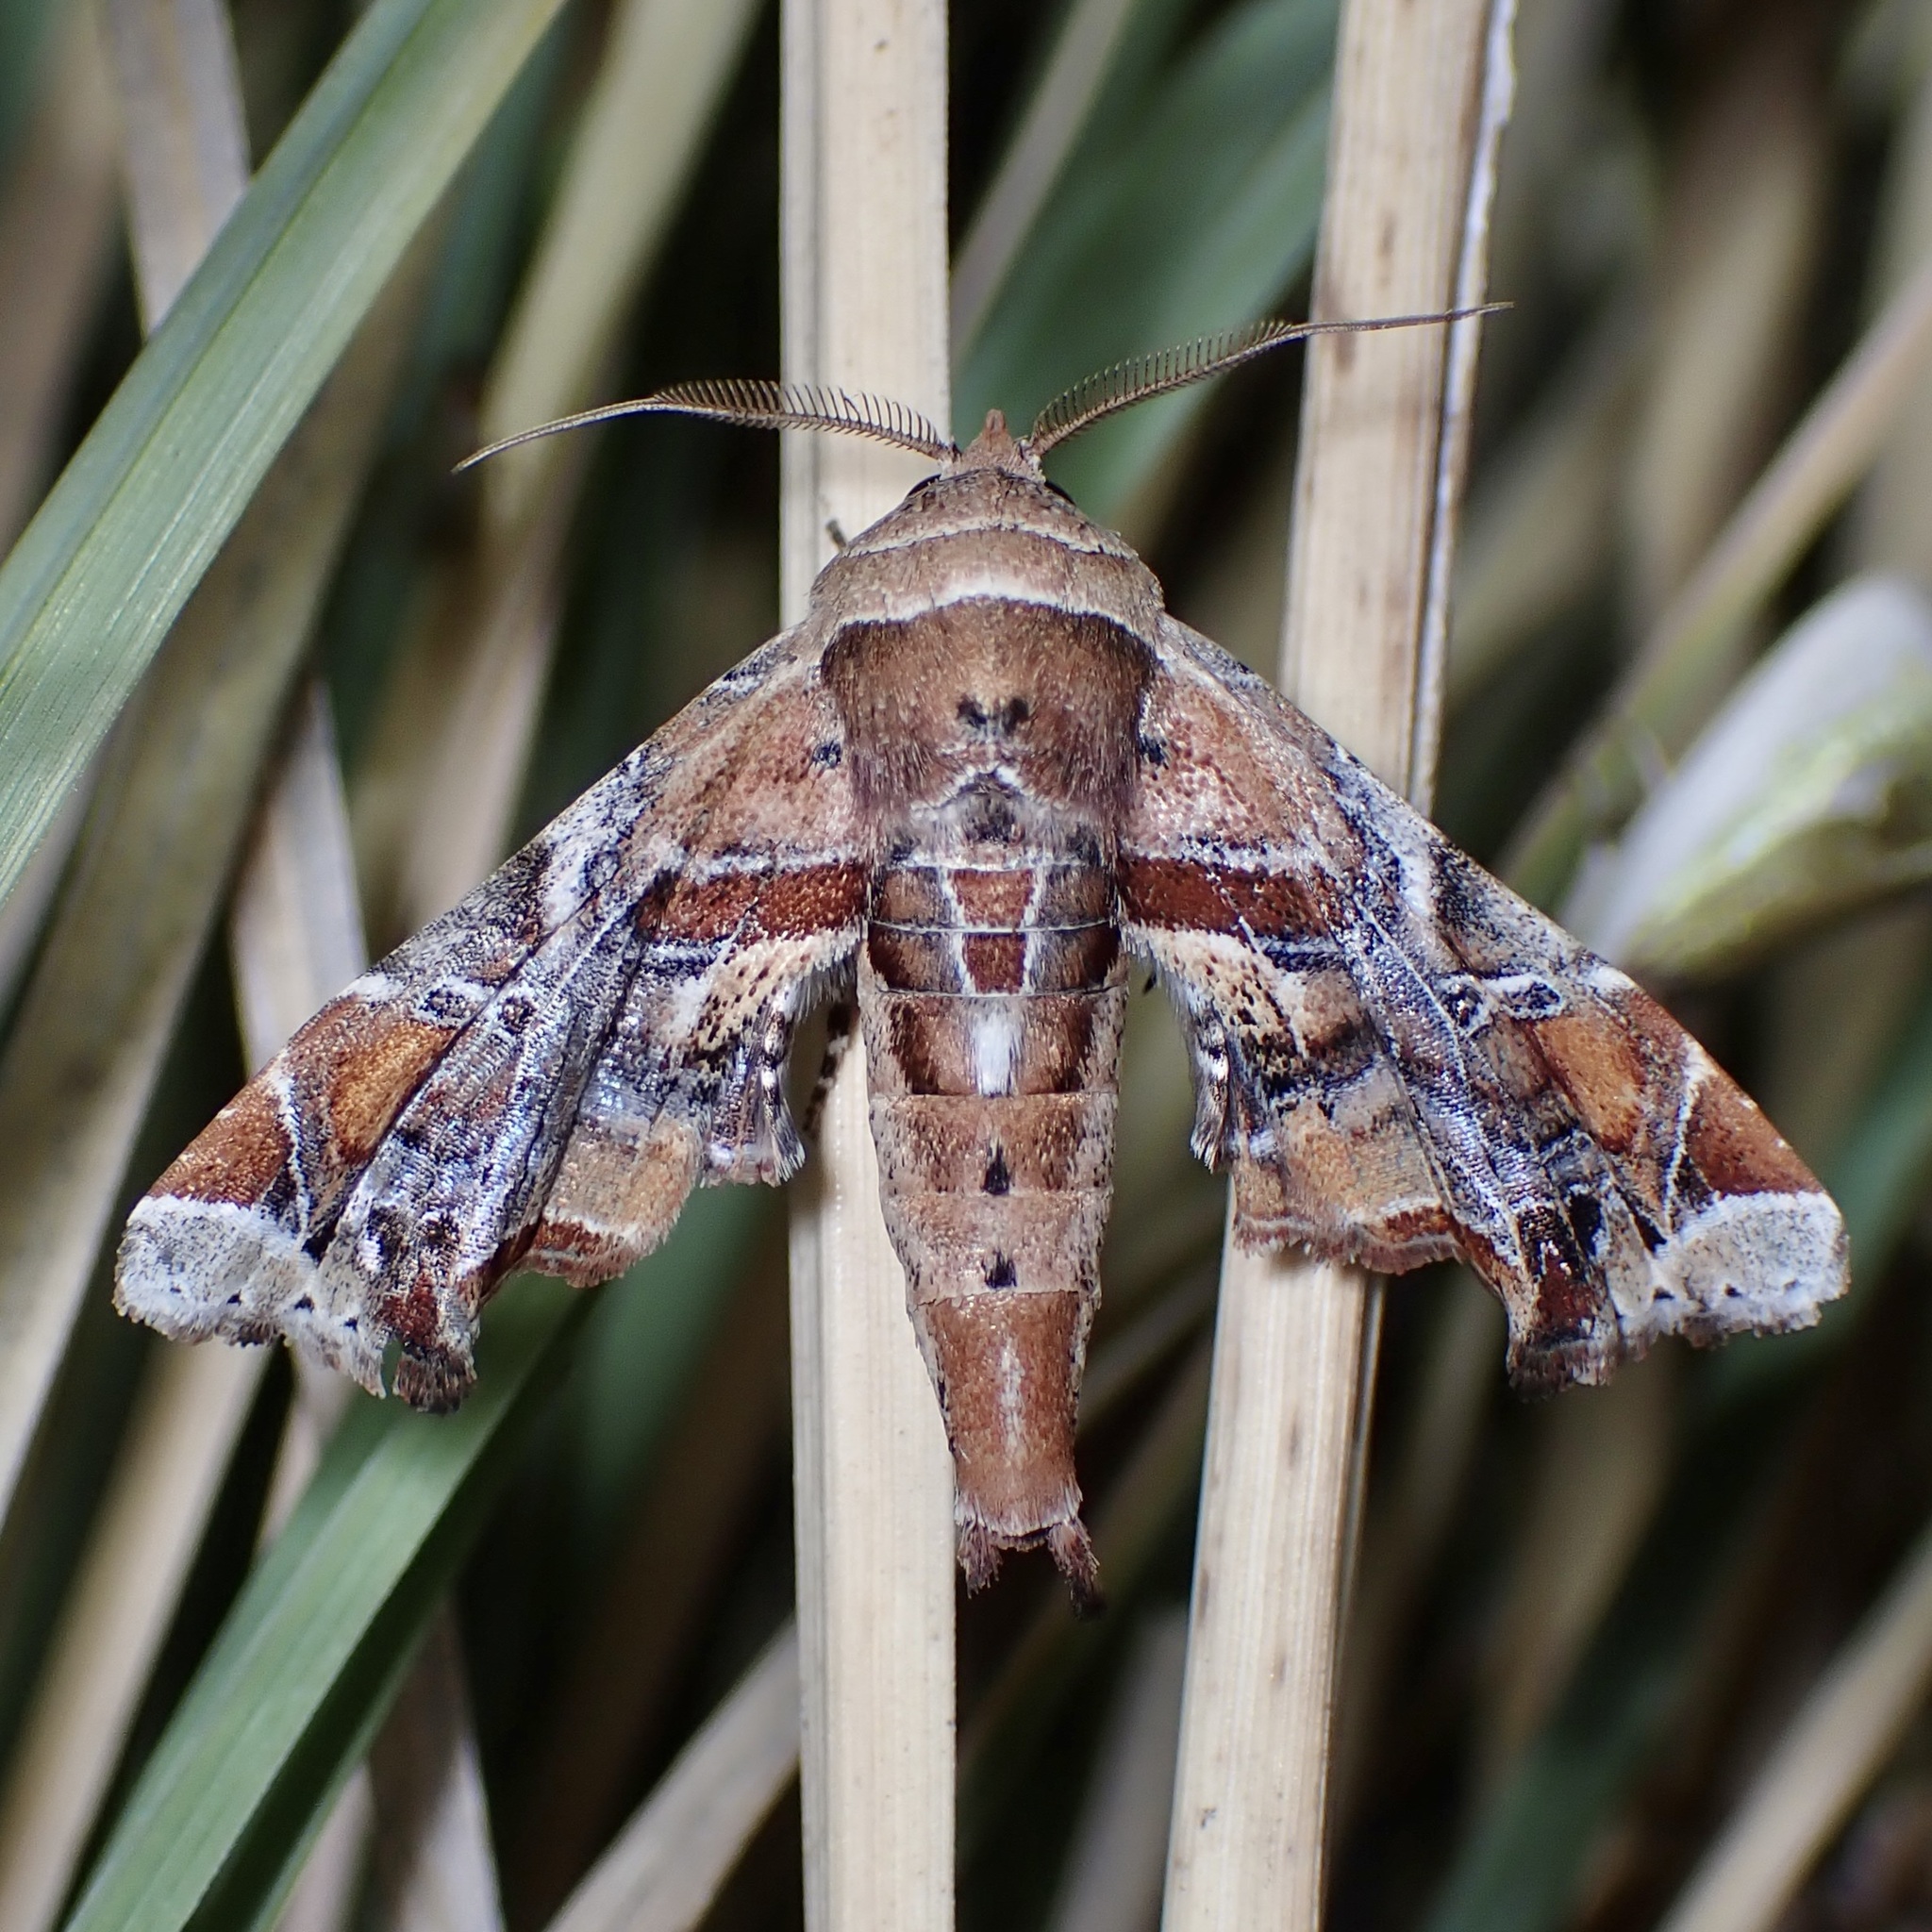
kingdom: Animalia
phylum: Arthropoda
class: Insecta
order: Lepidoptera
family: Euteliidae
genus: Eutelia
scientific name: Eutelia furcata
